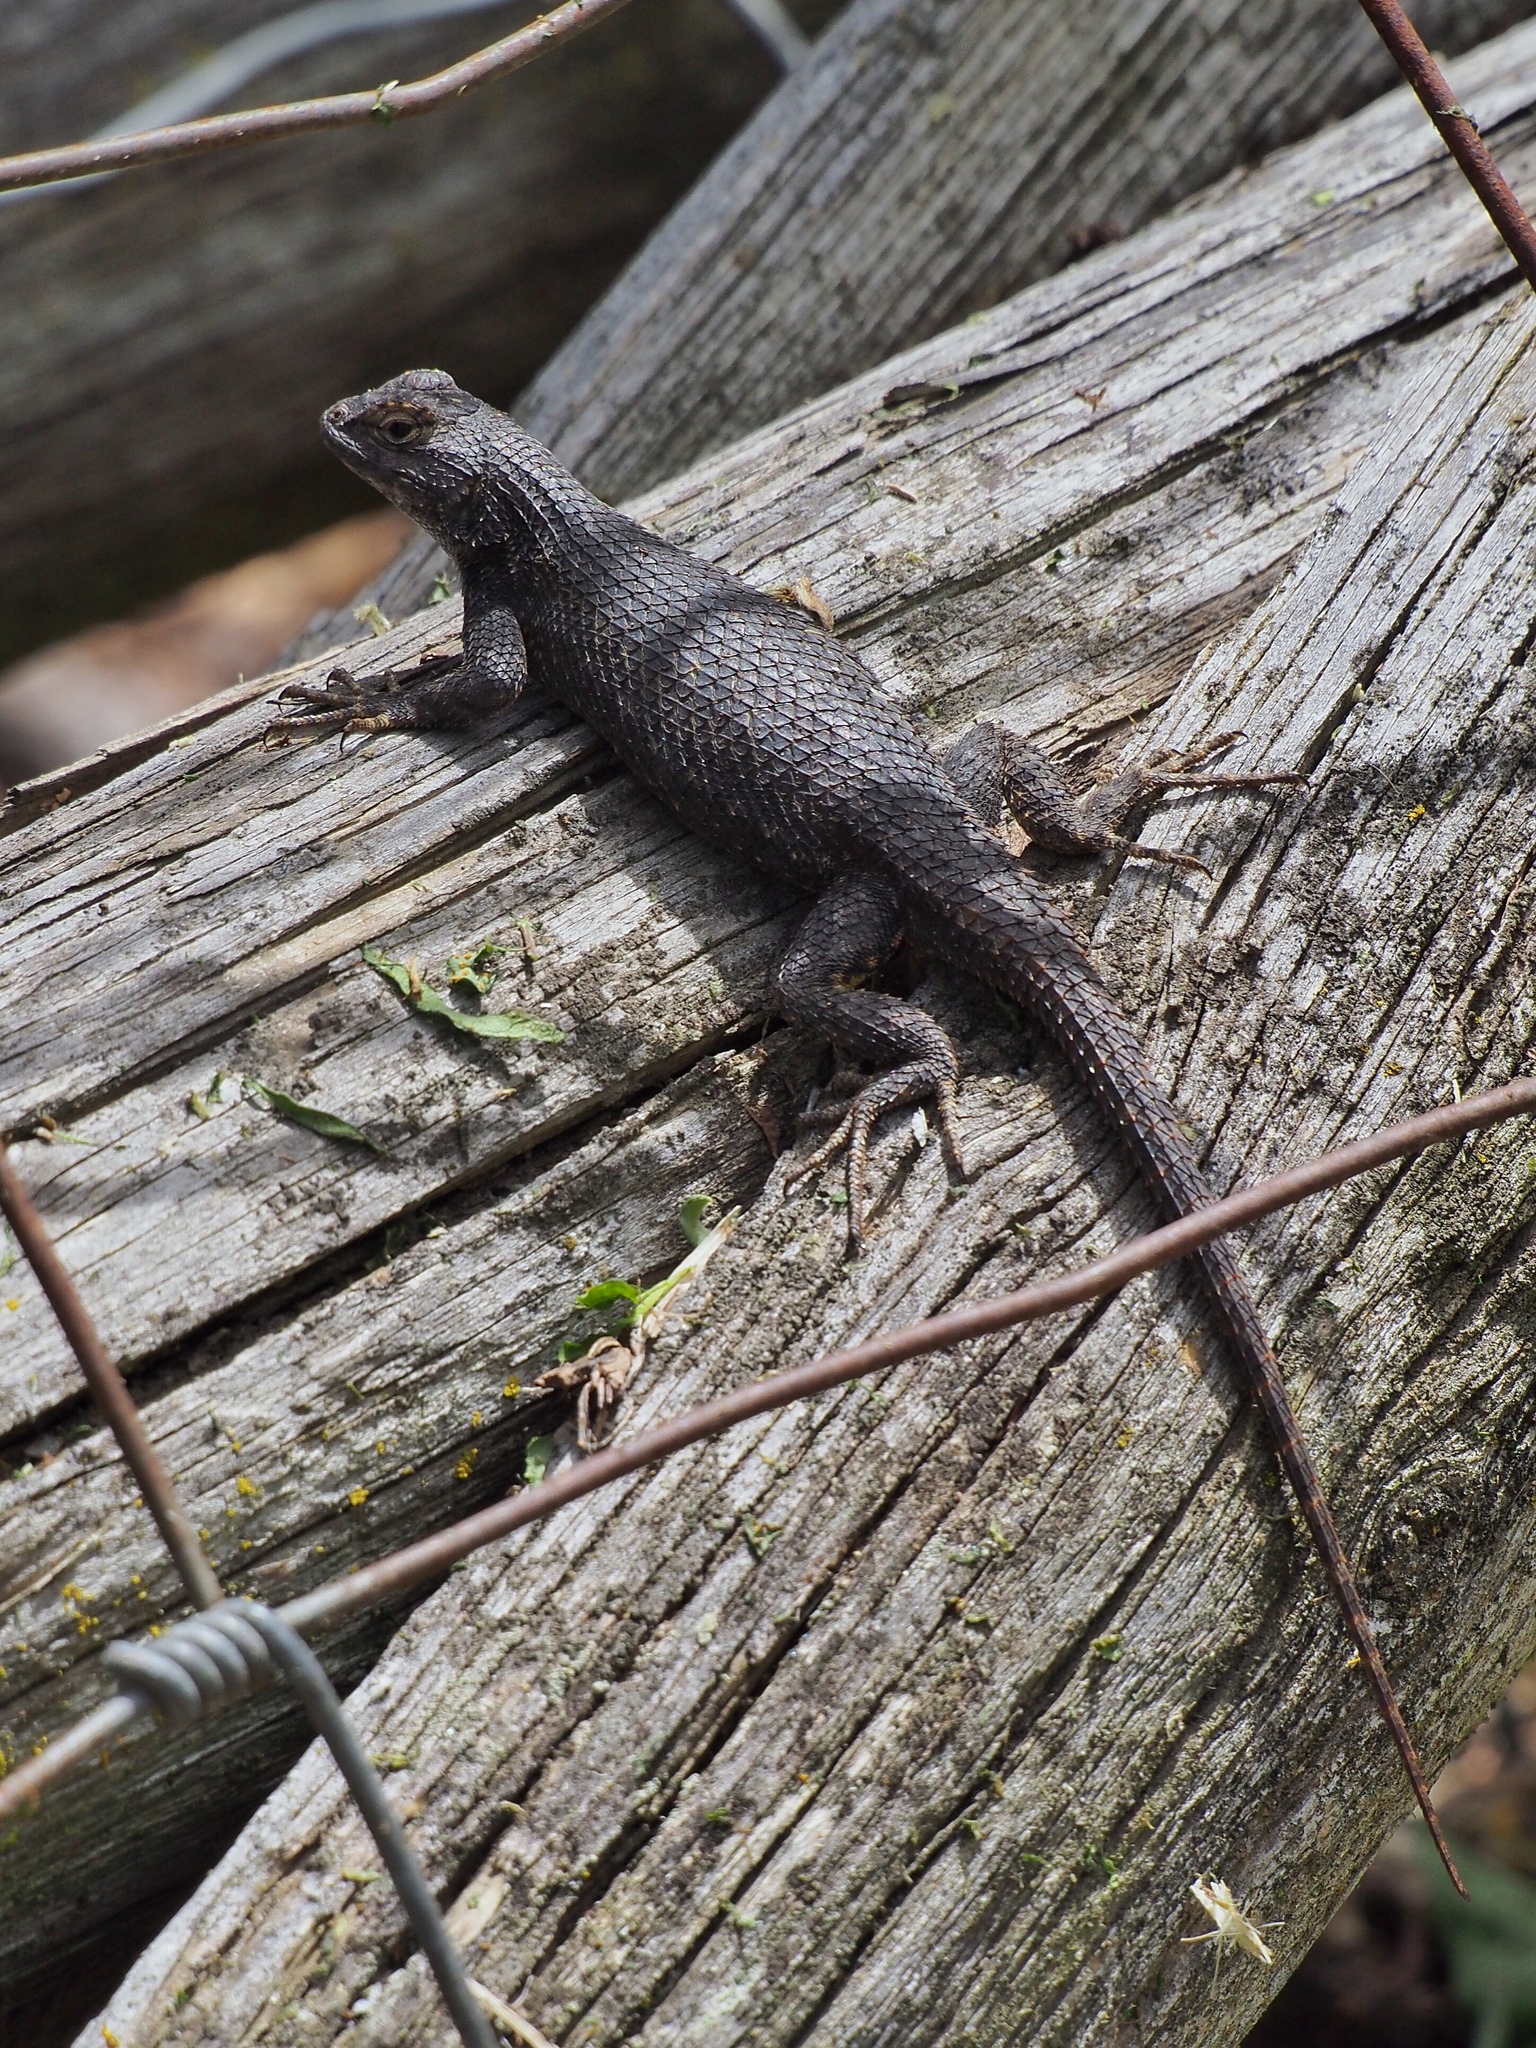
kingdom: Animalia
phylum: Chordata
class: Squamata
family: Phrynosomatidae
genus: Sceloporus
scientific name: Sceloporus occidentalis
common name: Western fence lizard
